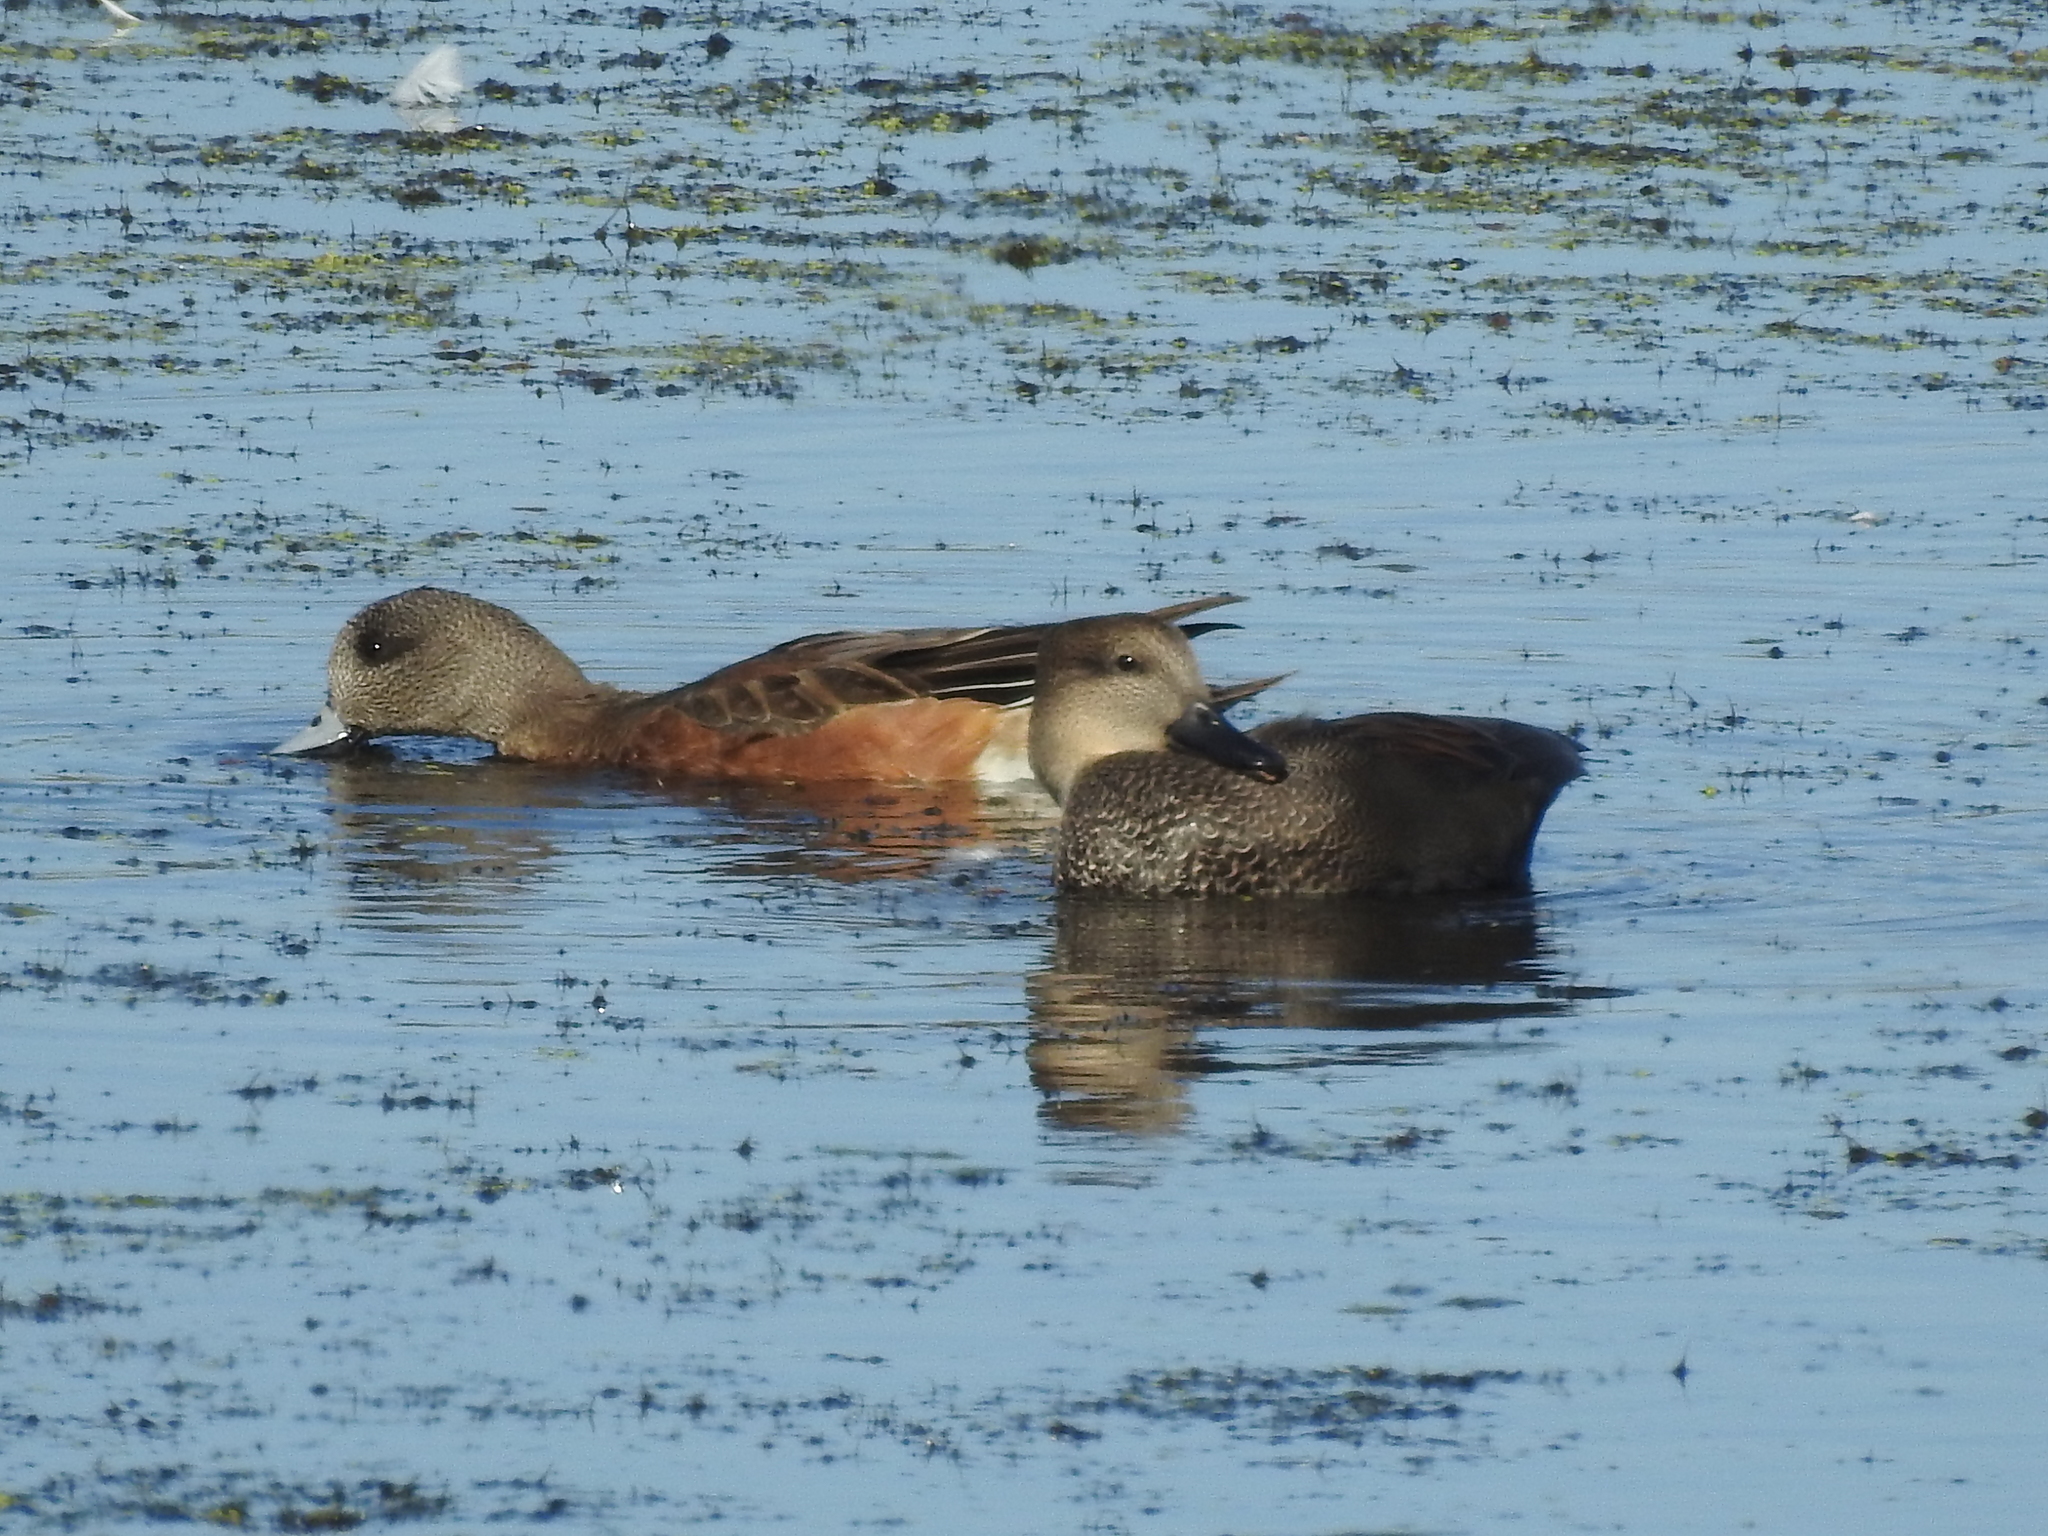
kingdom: Animalia
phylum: Chordata
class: Aves
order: Anseriformes
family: Anatidae
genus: Mareca
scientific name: Mareca americana
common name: American wigeon
